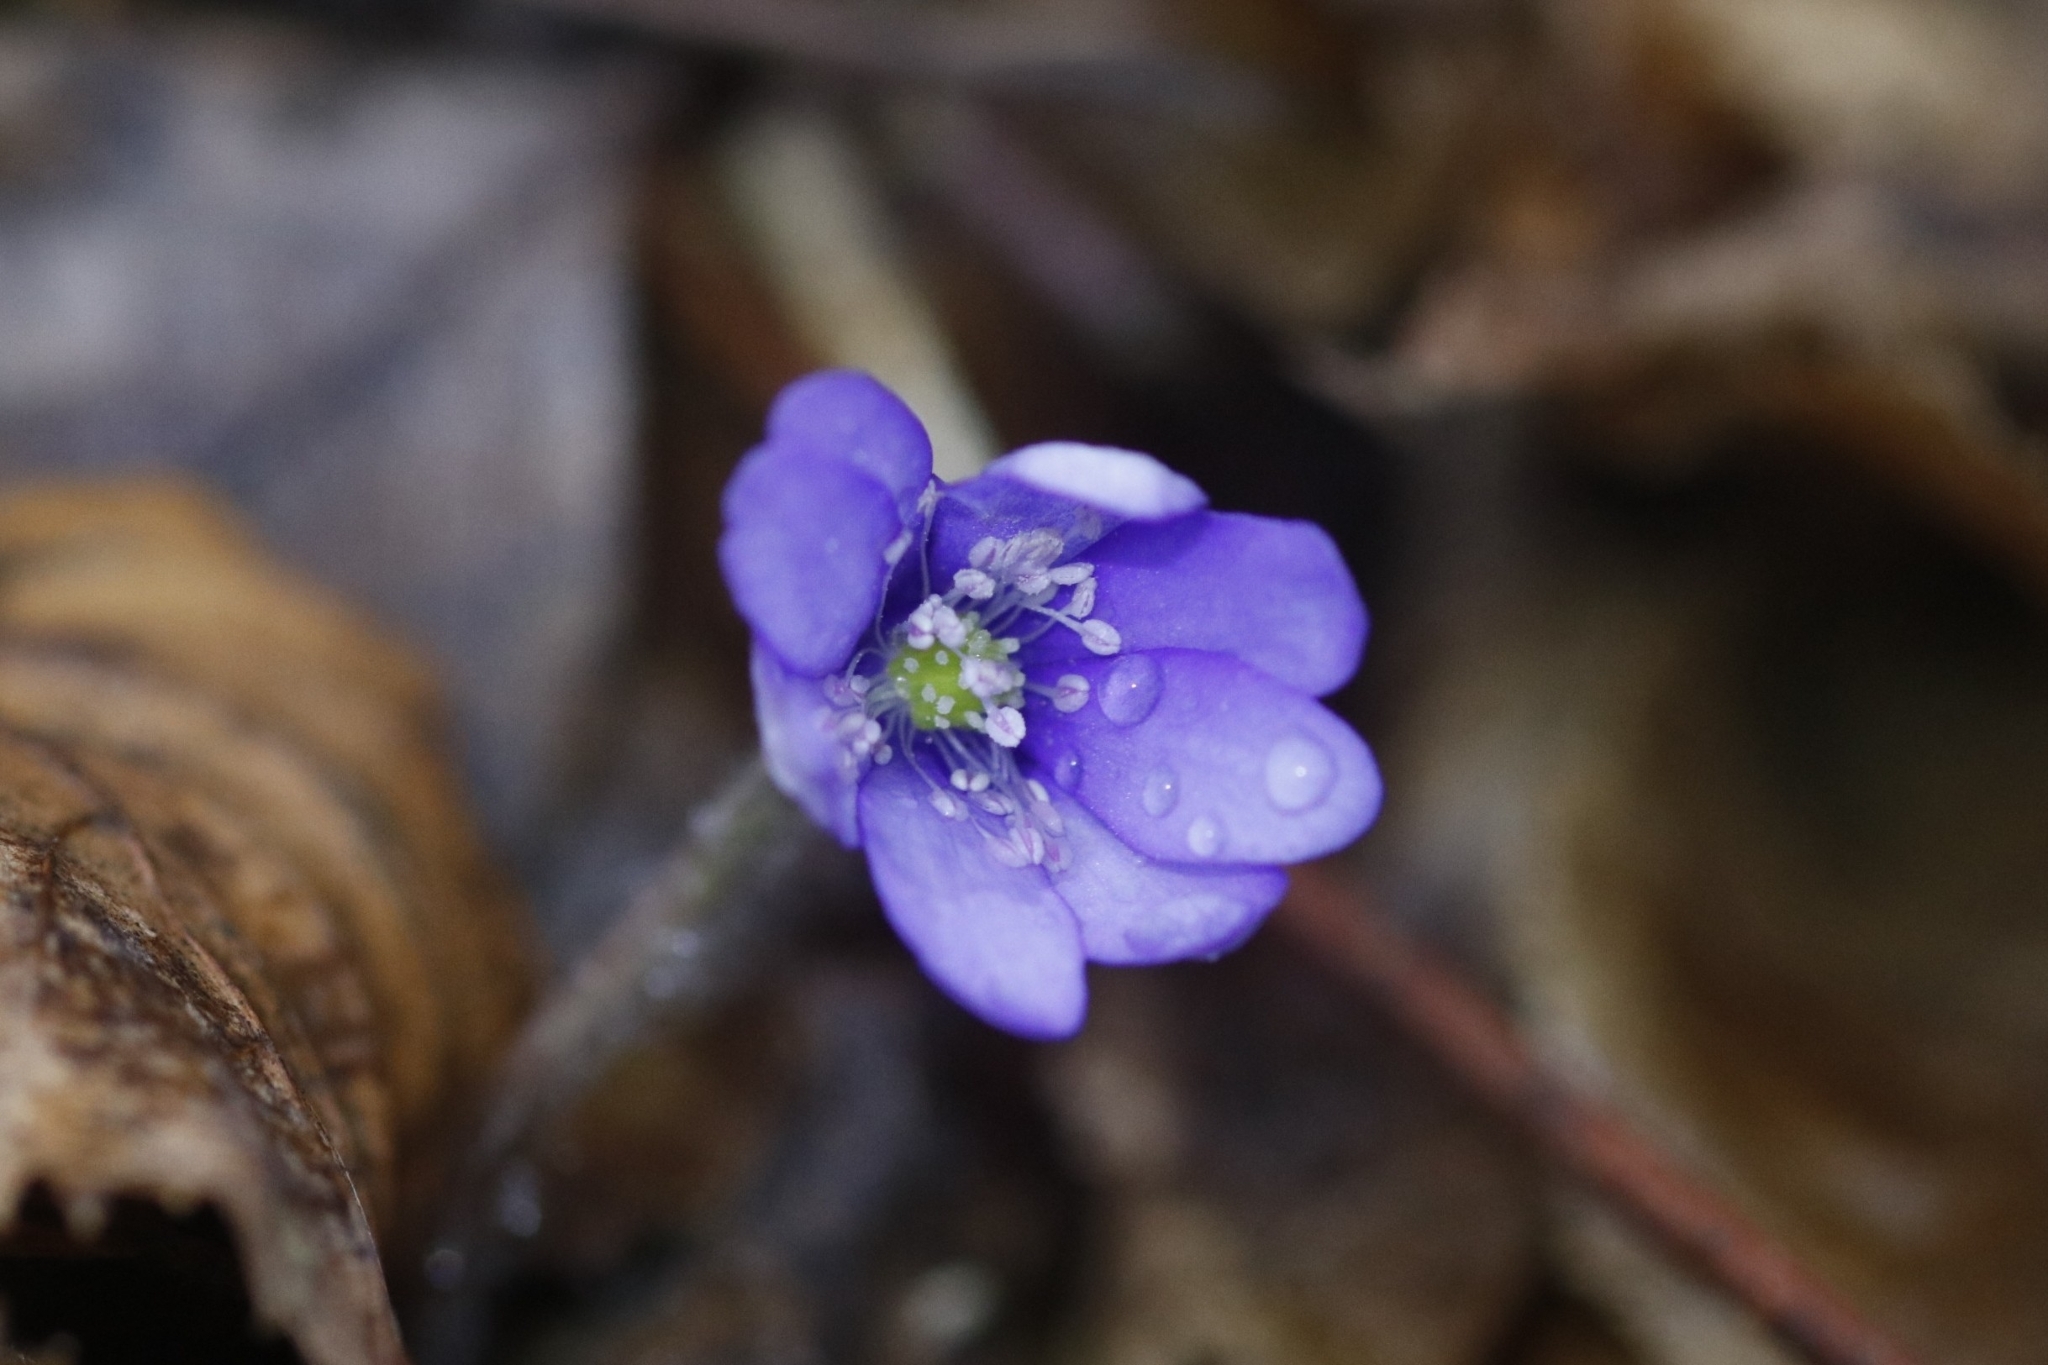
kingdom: Plantae
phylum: Tracheophyta
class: Magnoliopsida
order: Ranunculales
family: Ranunculaceae
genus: Hepatica
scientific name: Hepatica nobilis
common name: Liverleaf
